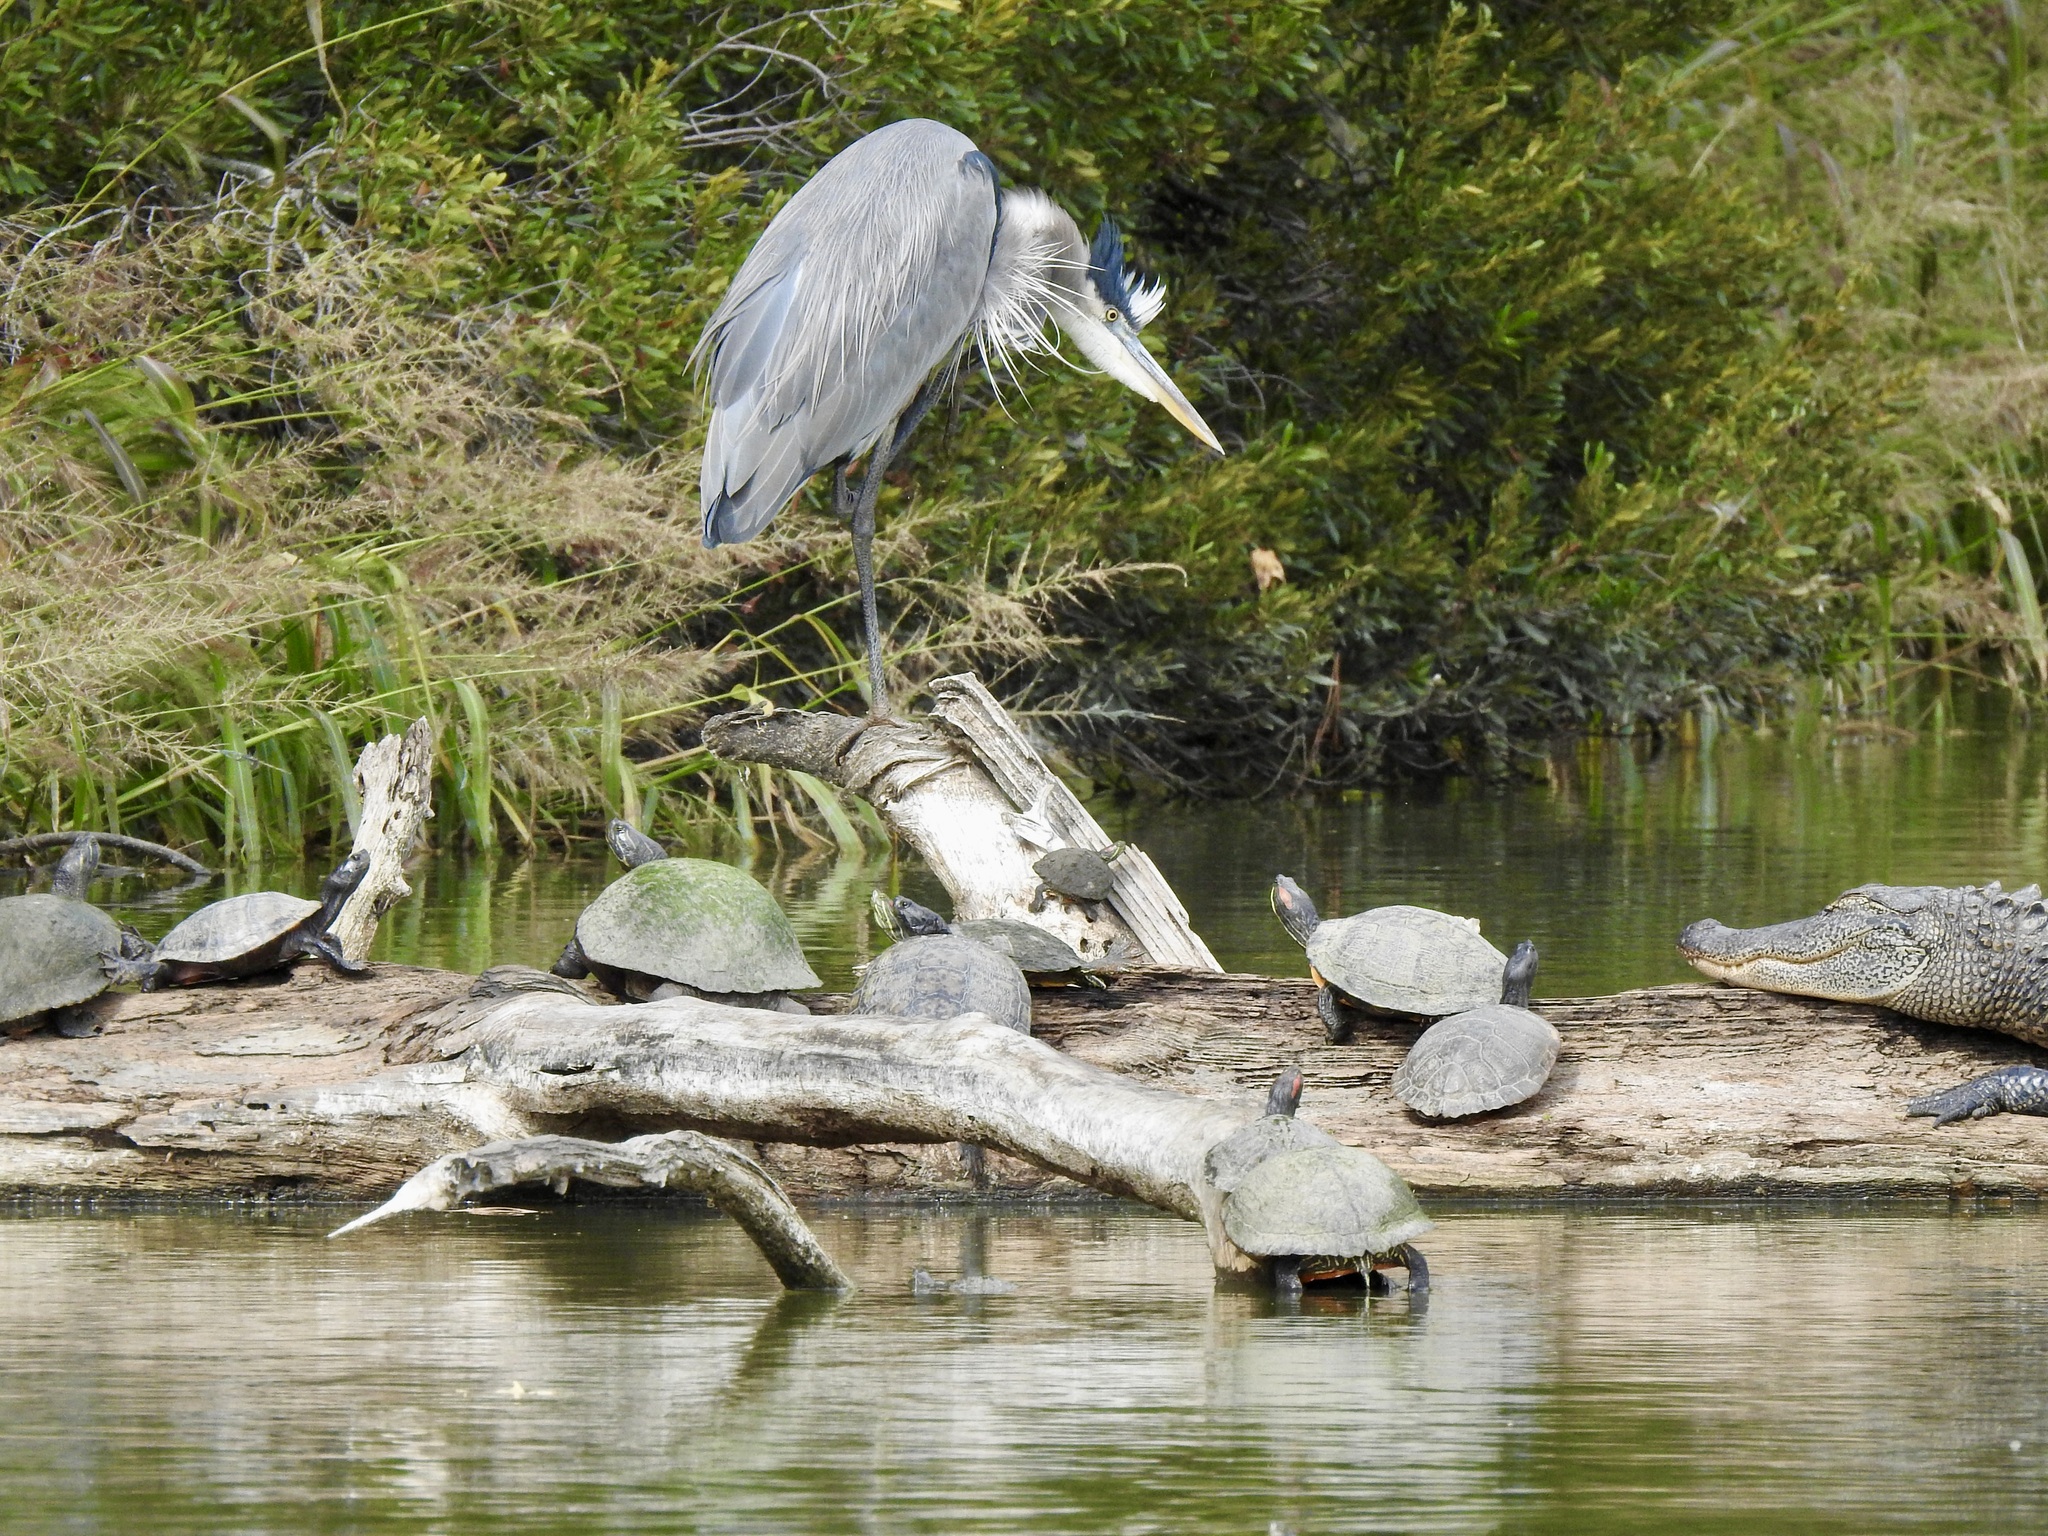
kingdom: Animalia
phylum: Chordata
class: Aves
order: Pelecaniformes
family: Ardeidae
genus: Ardea
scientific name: Ardea herodias
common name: Great blue heron
